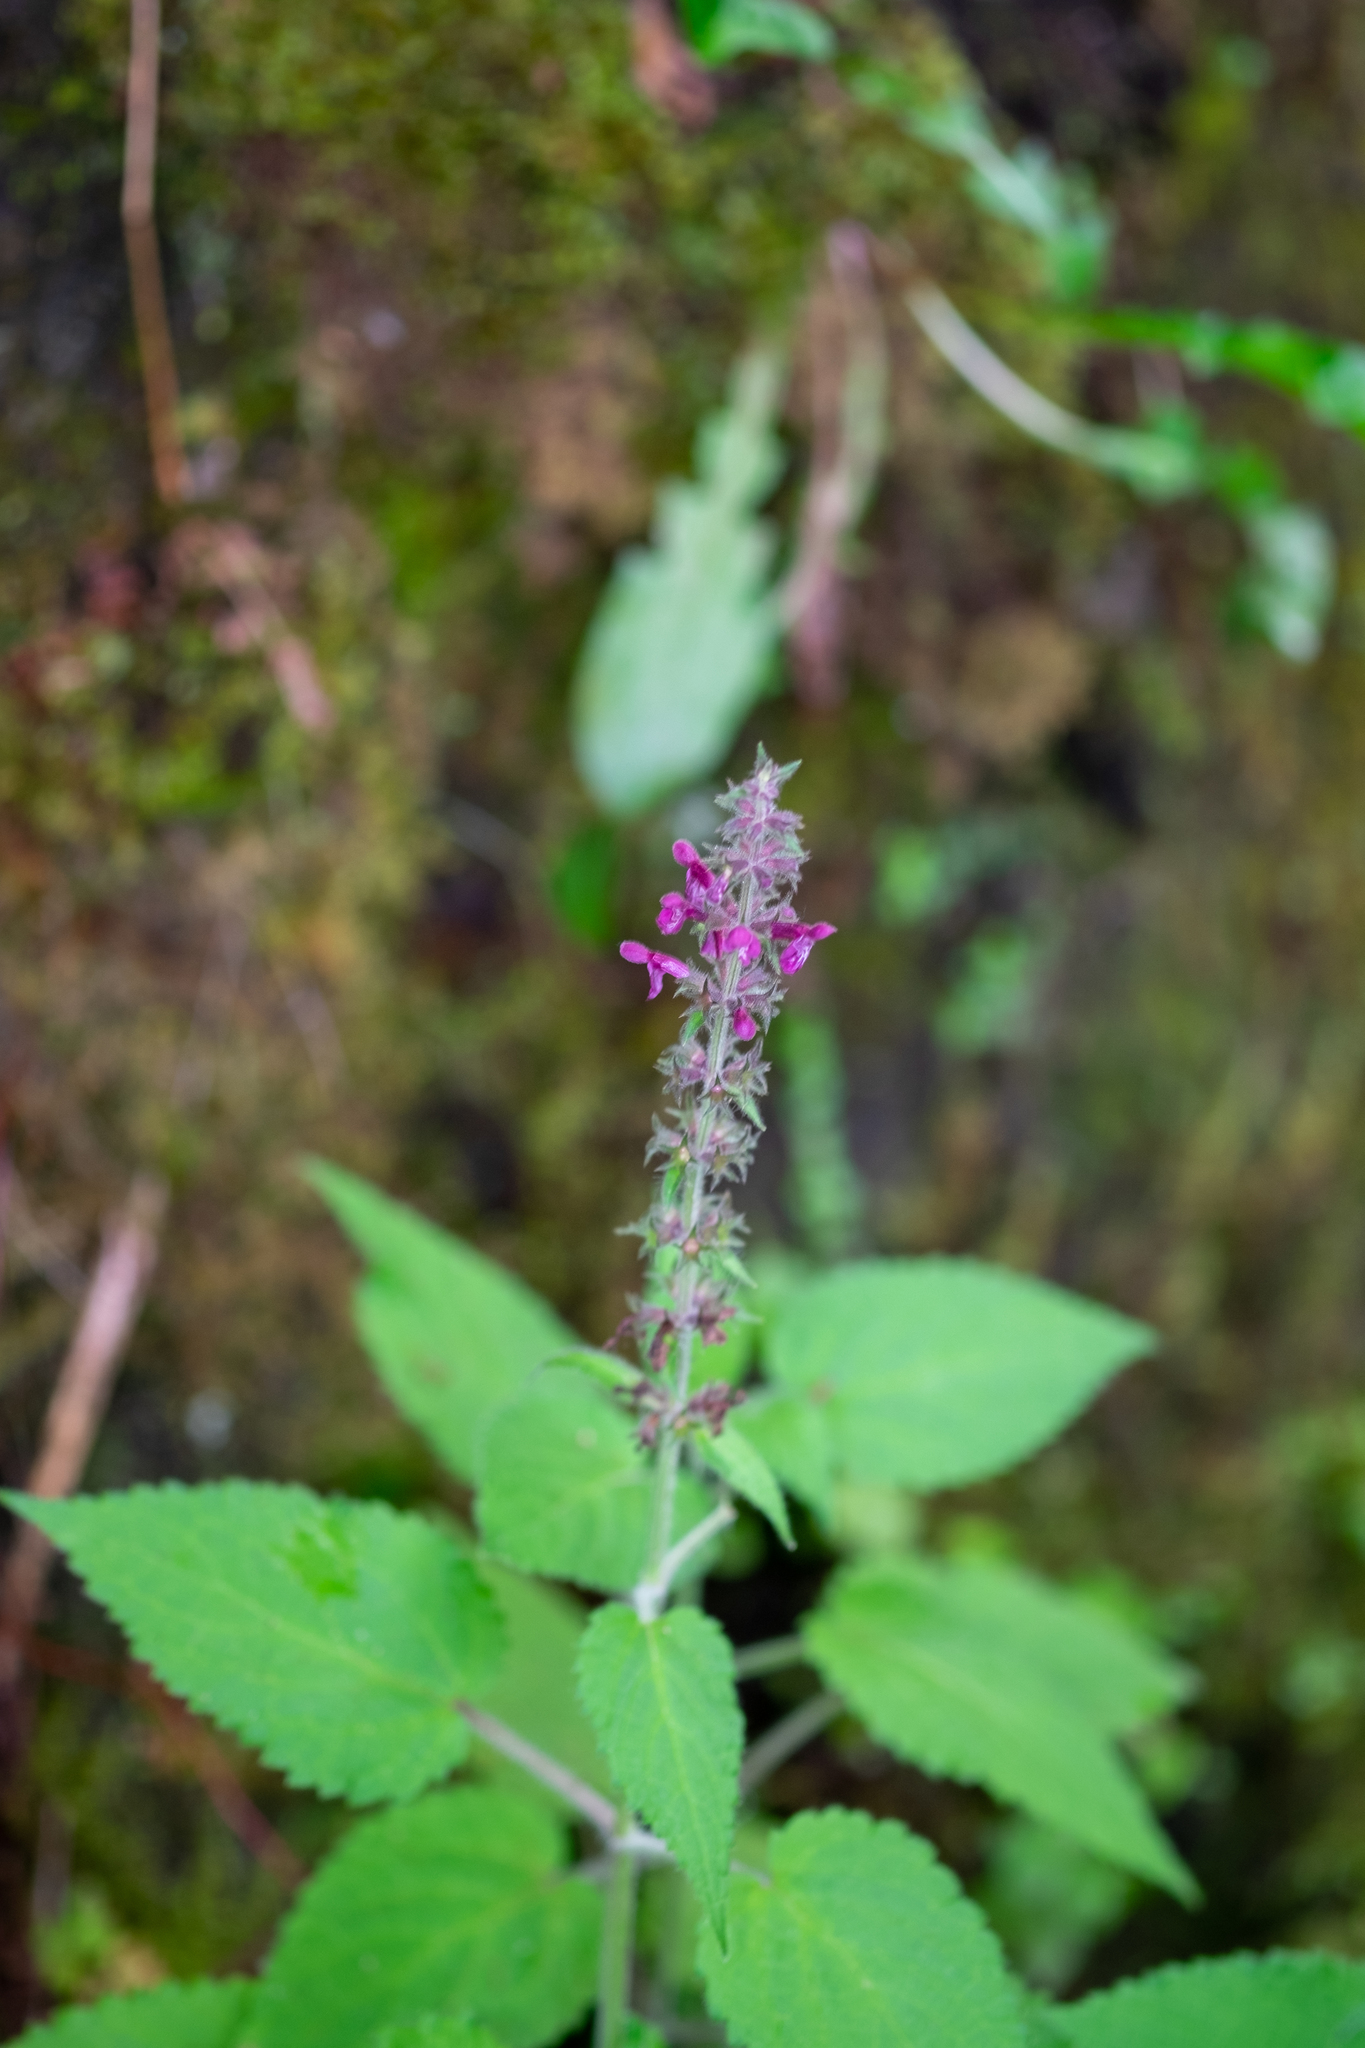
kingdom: Plantae
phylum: Tracheophyta
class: Magnoliopsida
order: Lamiales
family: Lamiaceae
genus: Stachys
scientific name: Stachys sylvatica
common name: Hedge woundwort
